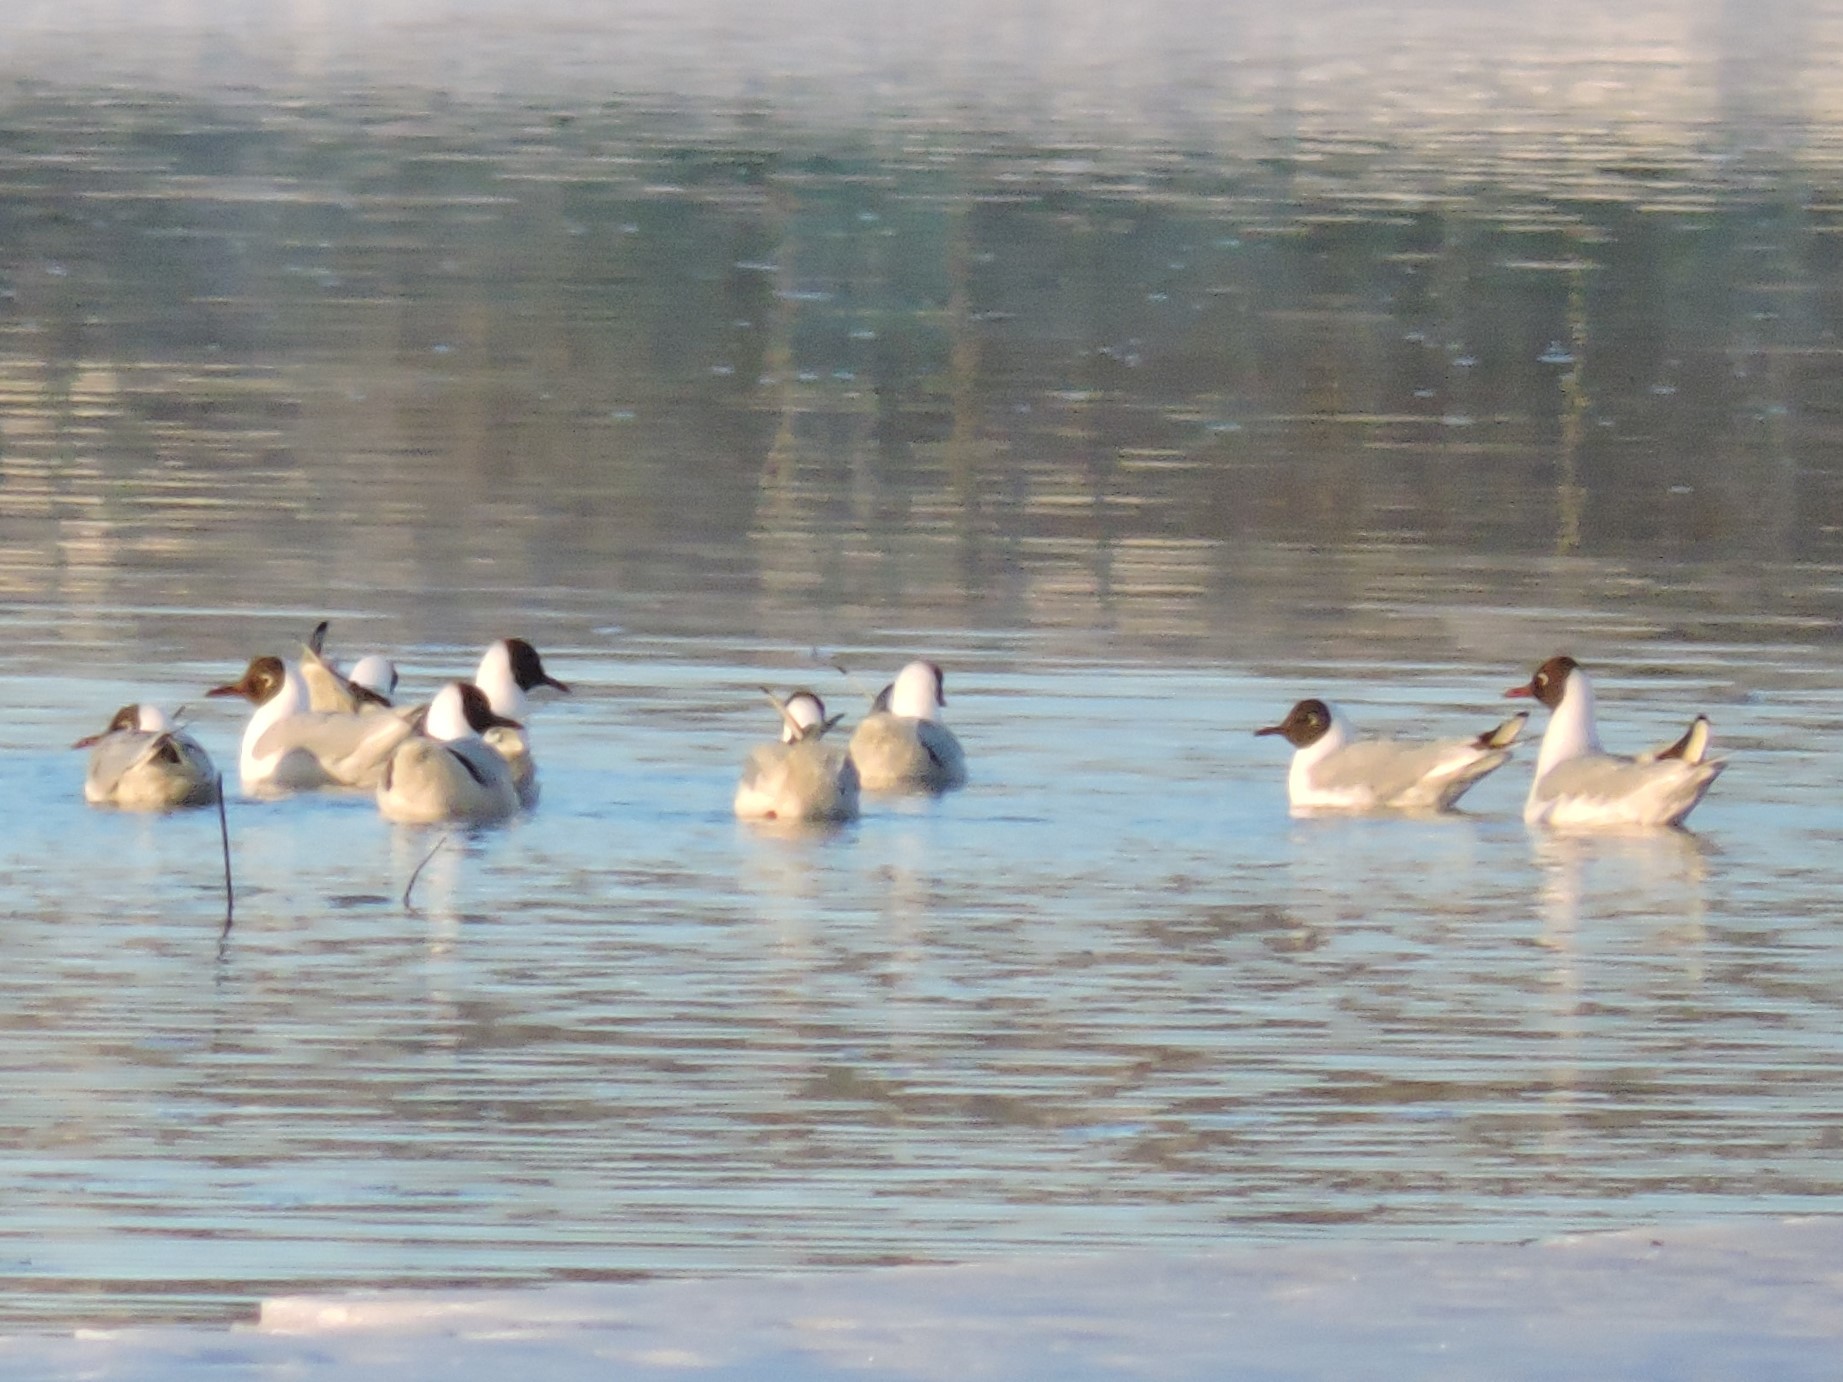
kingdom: Animalia
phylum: Chordata
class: Aves
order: Charadriiformes
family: Laridae
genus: Chroicocephalus
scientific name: Chroicocephalus ridibundus
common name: Black-headed gull
